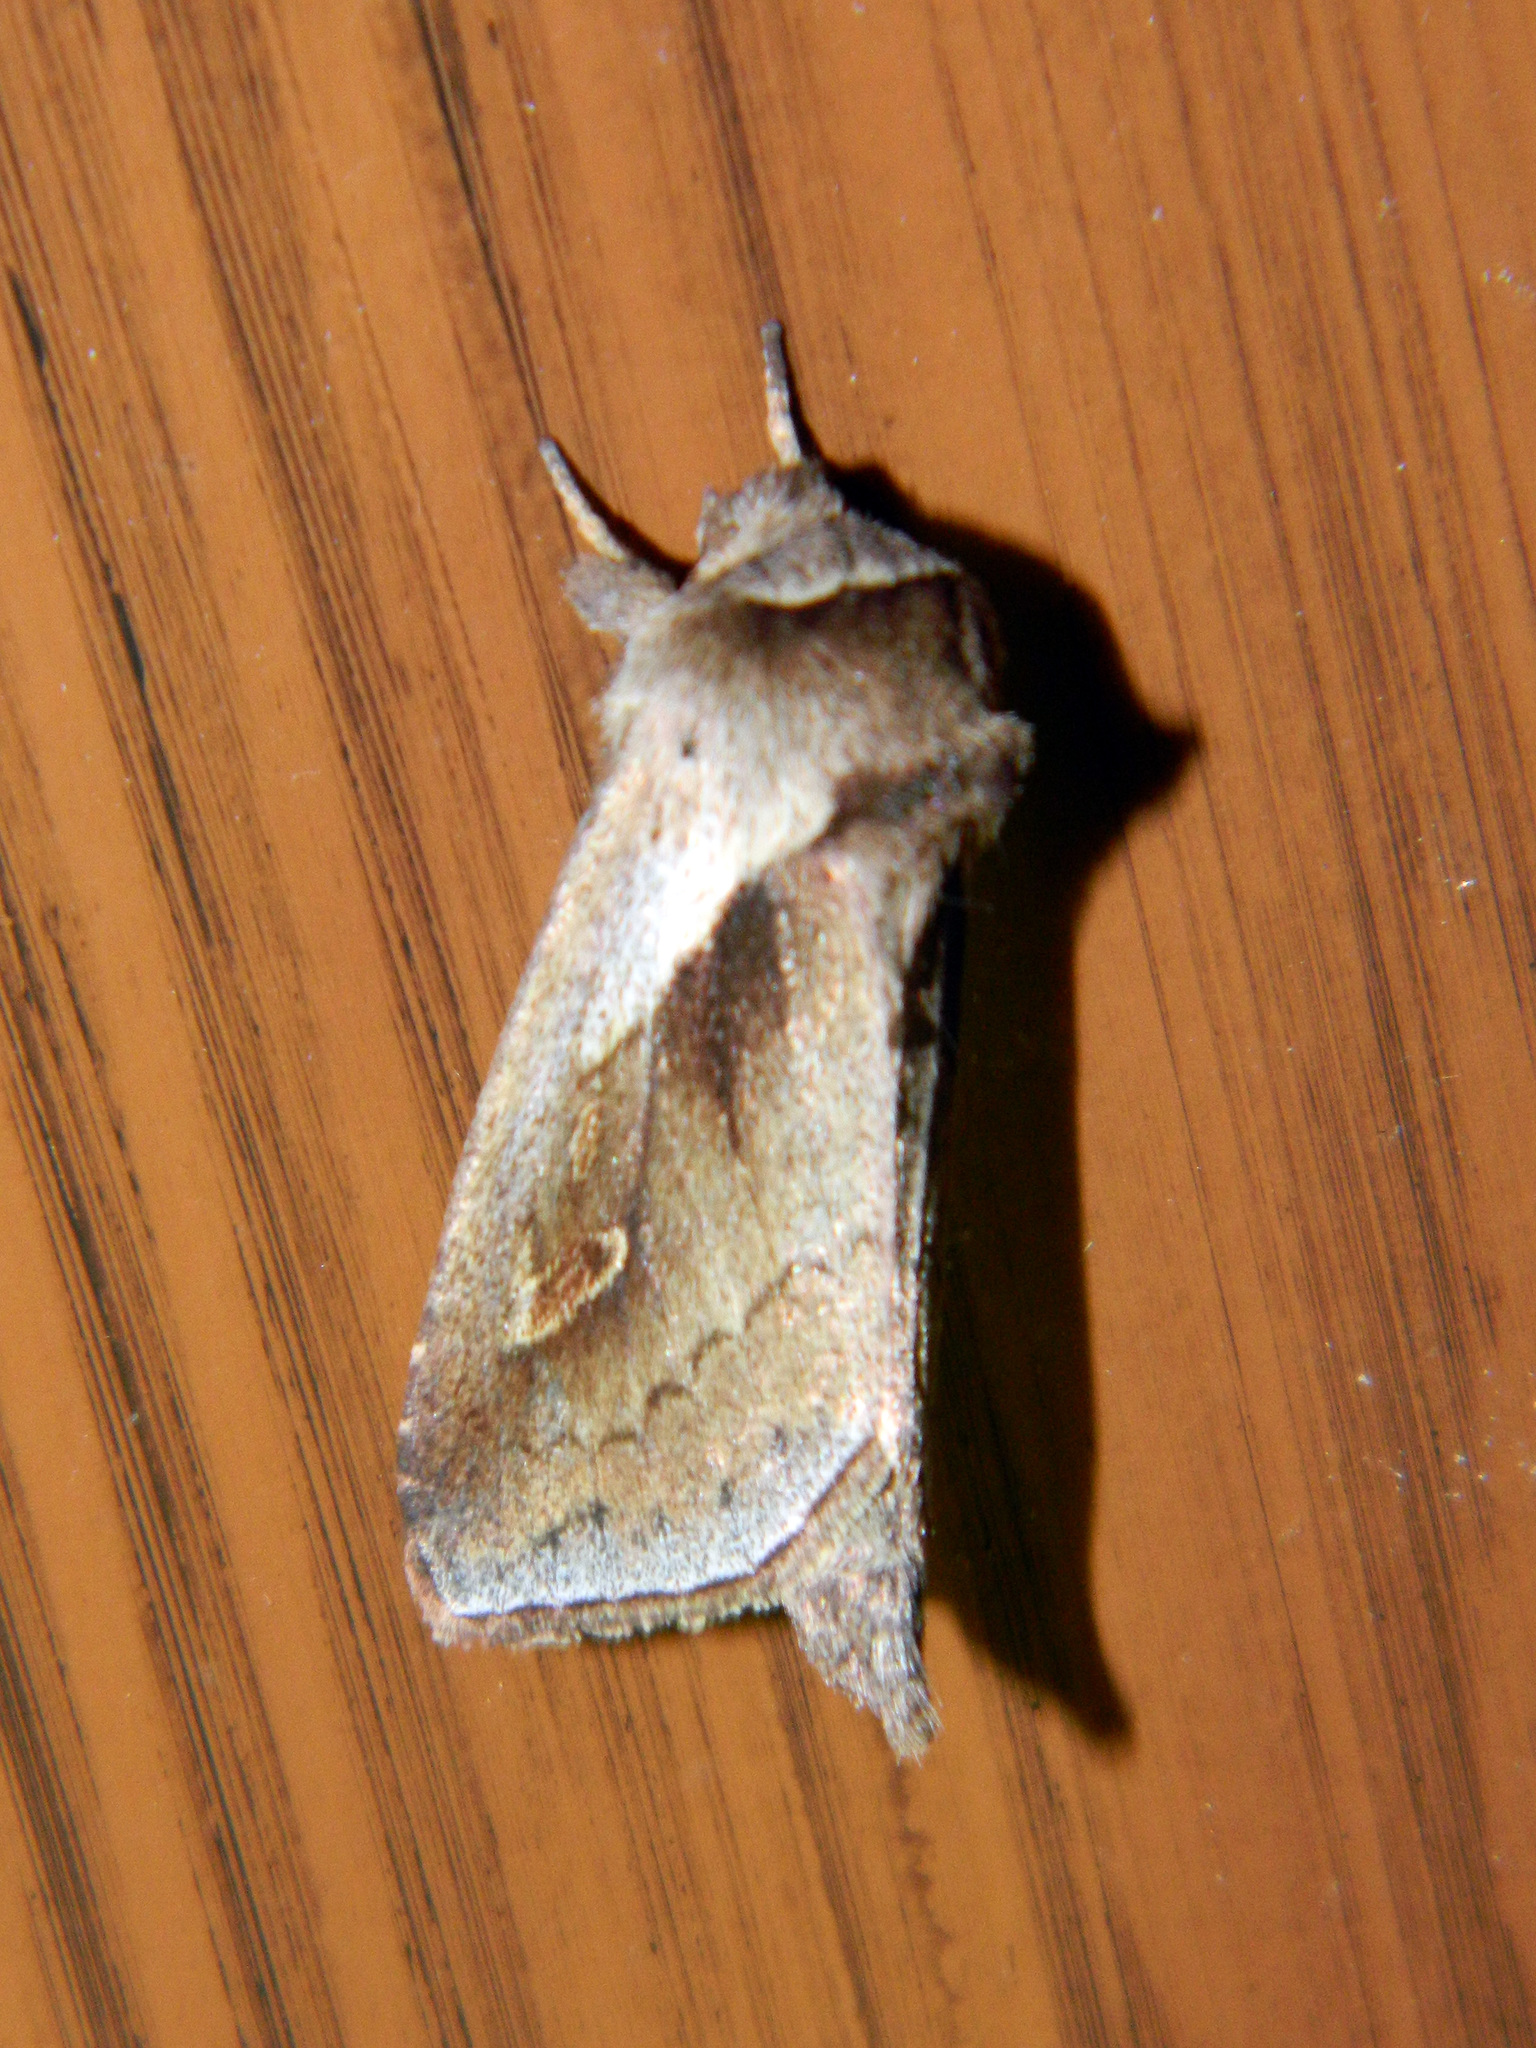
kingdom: Animalia
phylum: Arthropoda
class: Insecta
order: Lepidoptera
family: Noctuidae
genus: Bellura
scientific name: Bellura obliqua
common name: Cattail borer moth
